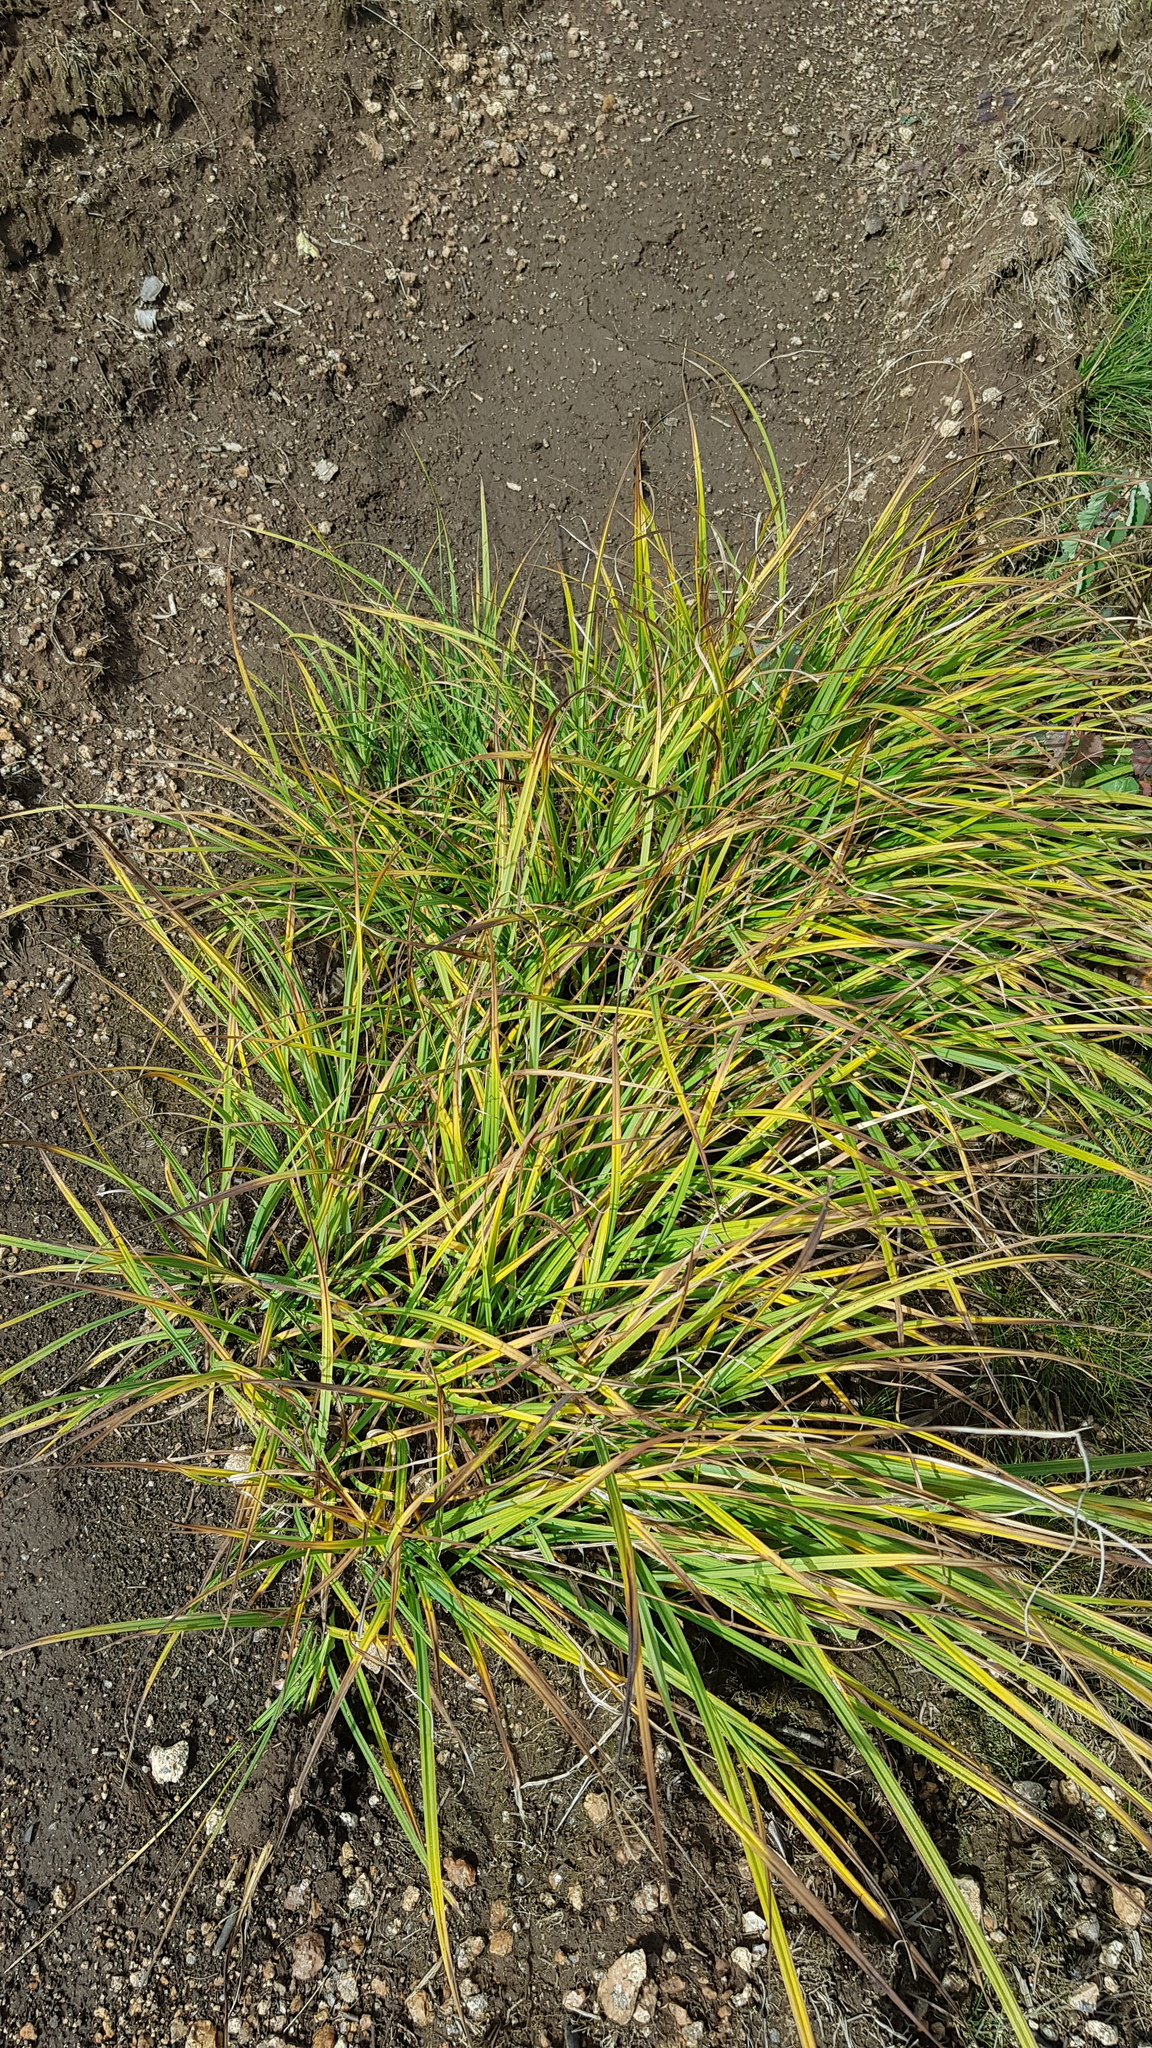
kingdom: Plantae
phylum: Tracheophyta
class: Liliopsida
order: Poales
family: Cyperaceae
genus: Carex
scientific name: Carex pediformis
